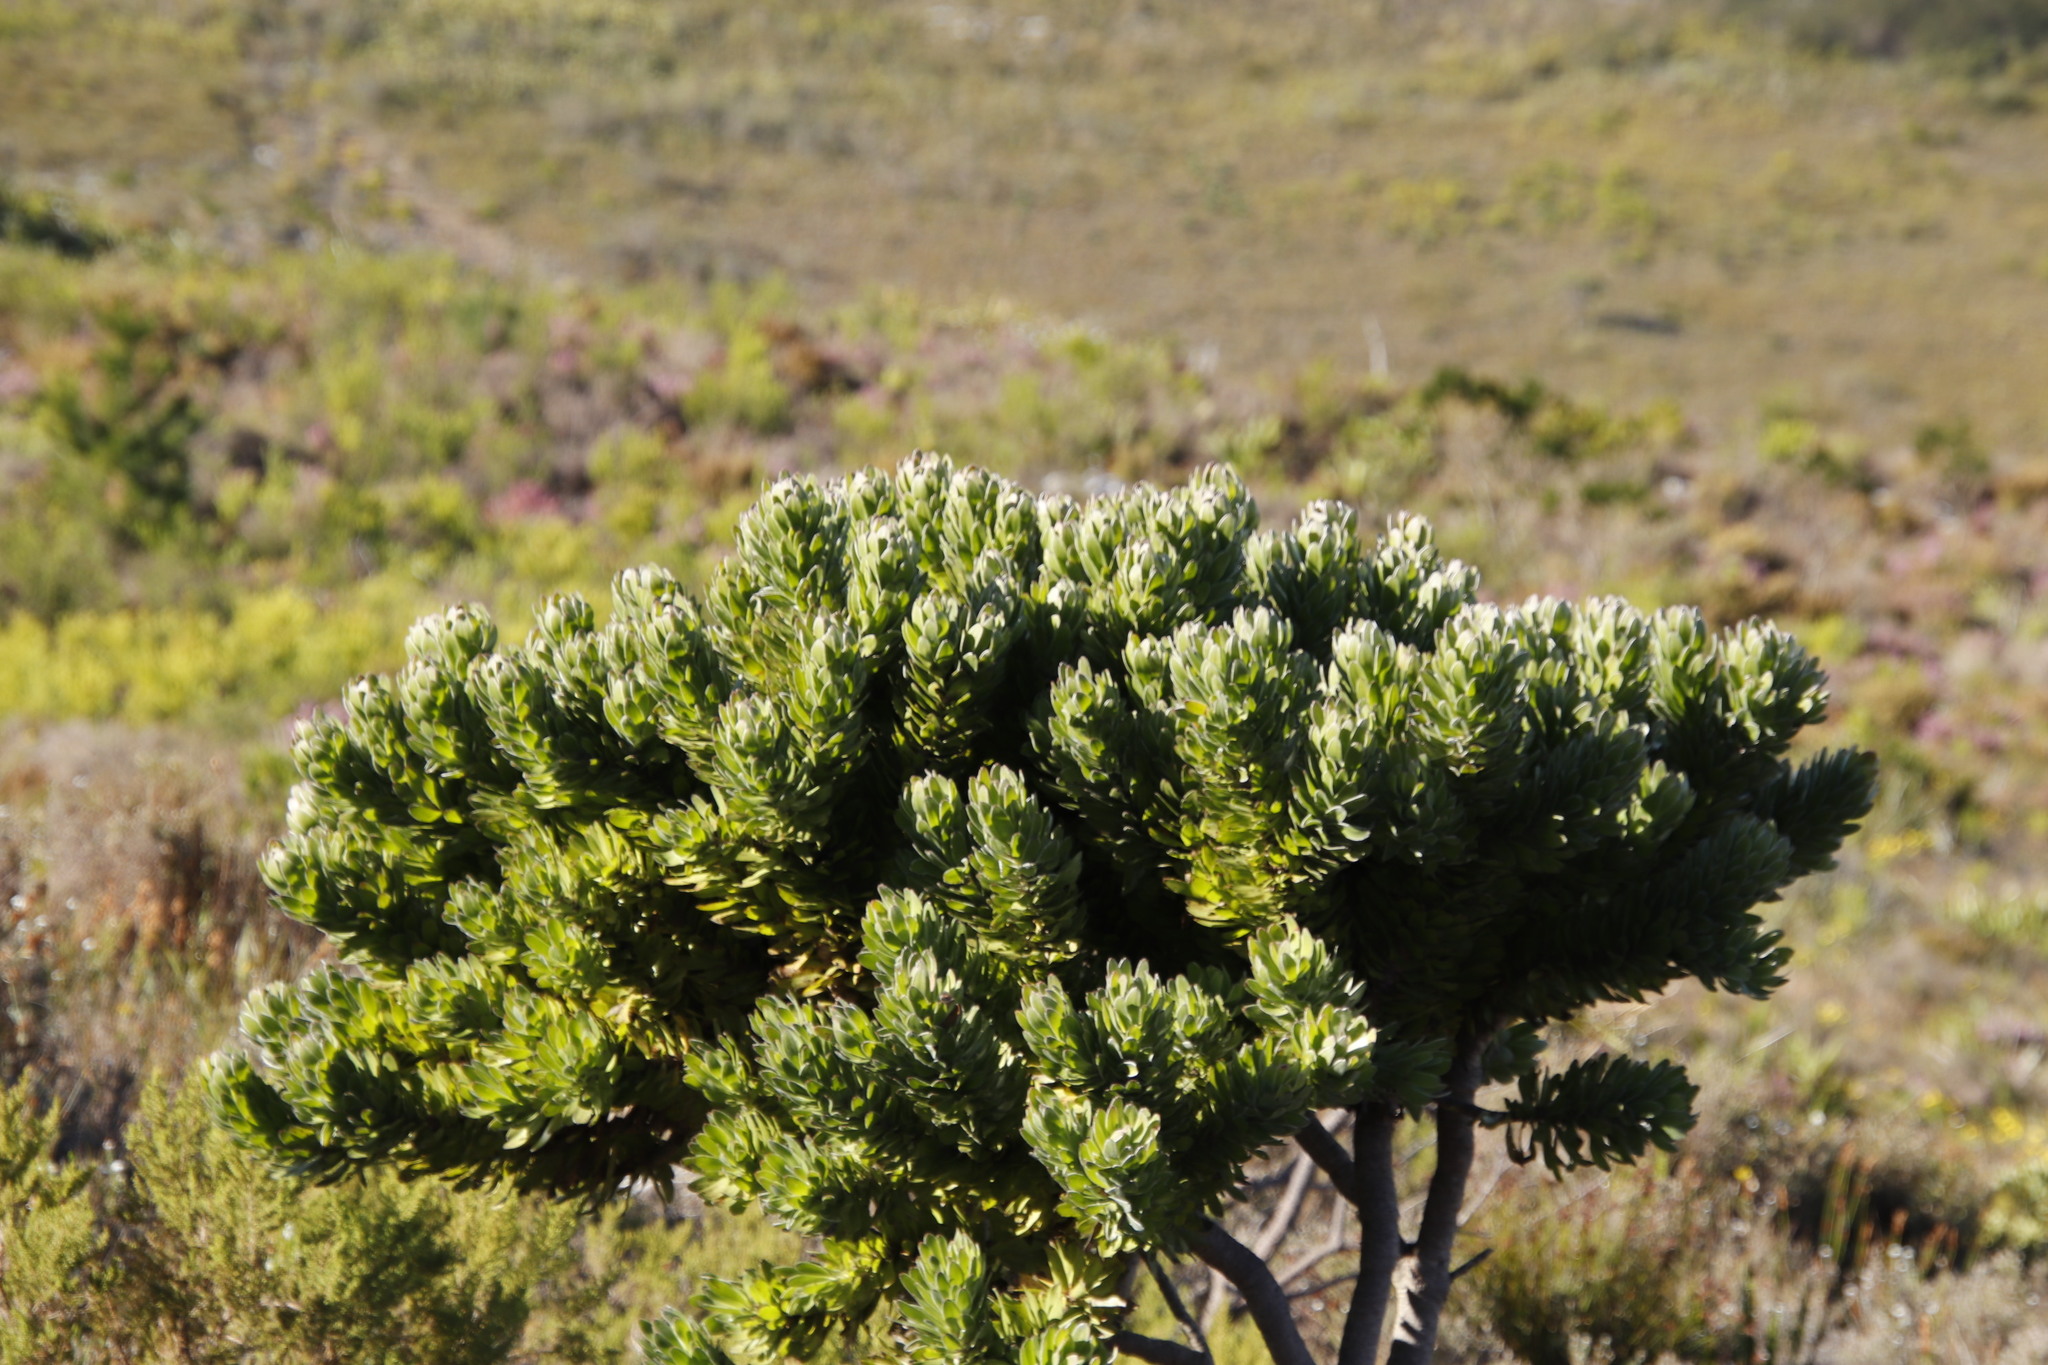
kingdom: Plantae
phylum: Tracheophyta
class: Magnoliopsida
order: Proteales
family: Proteaceae
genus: Mimetes
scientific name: Mimetes fimbriifolius
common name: Fringed bottlebrush
